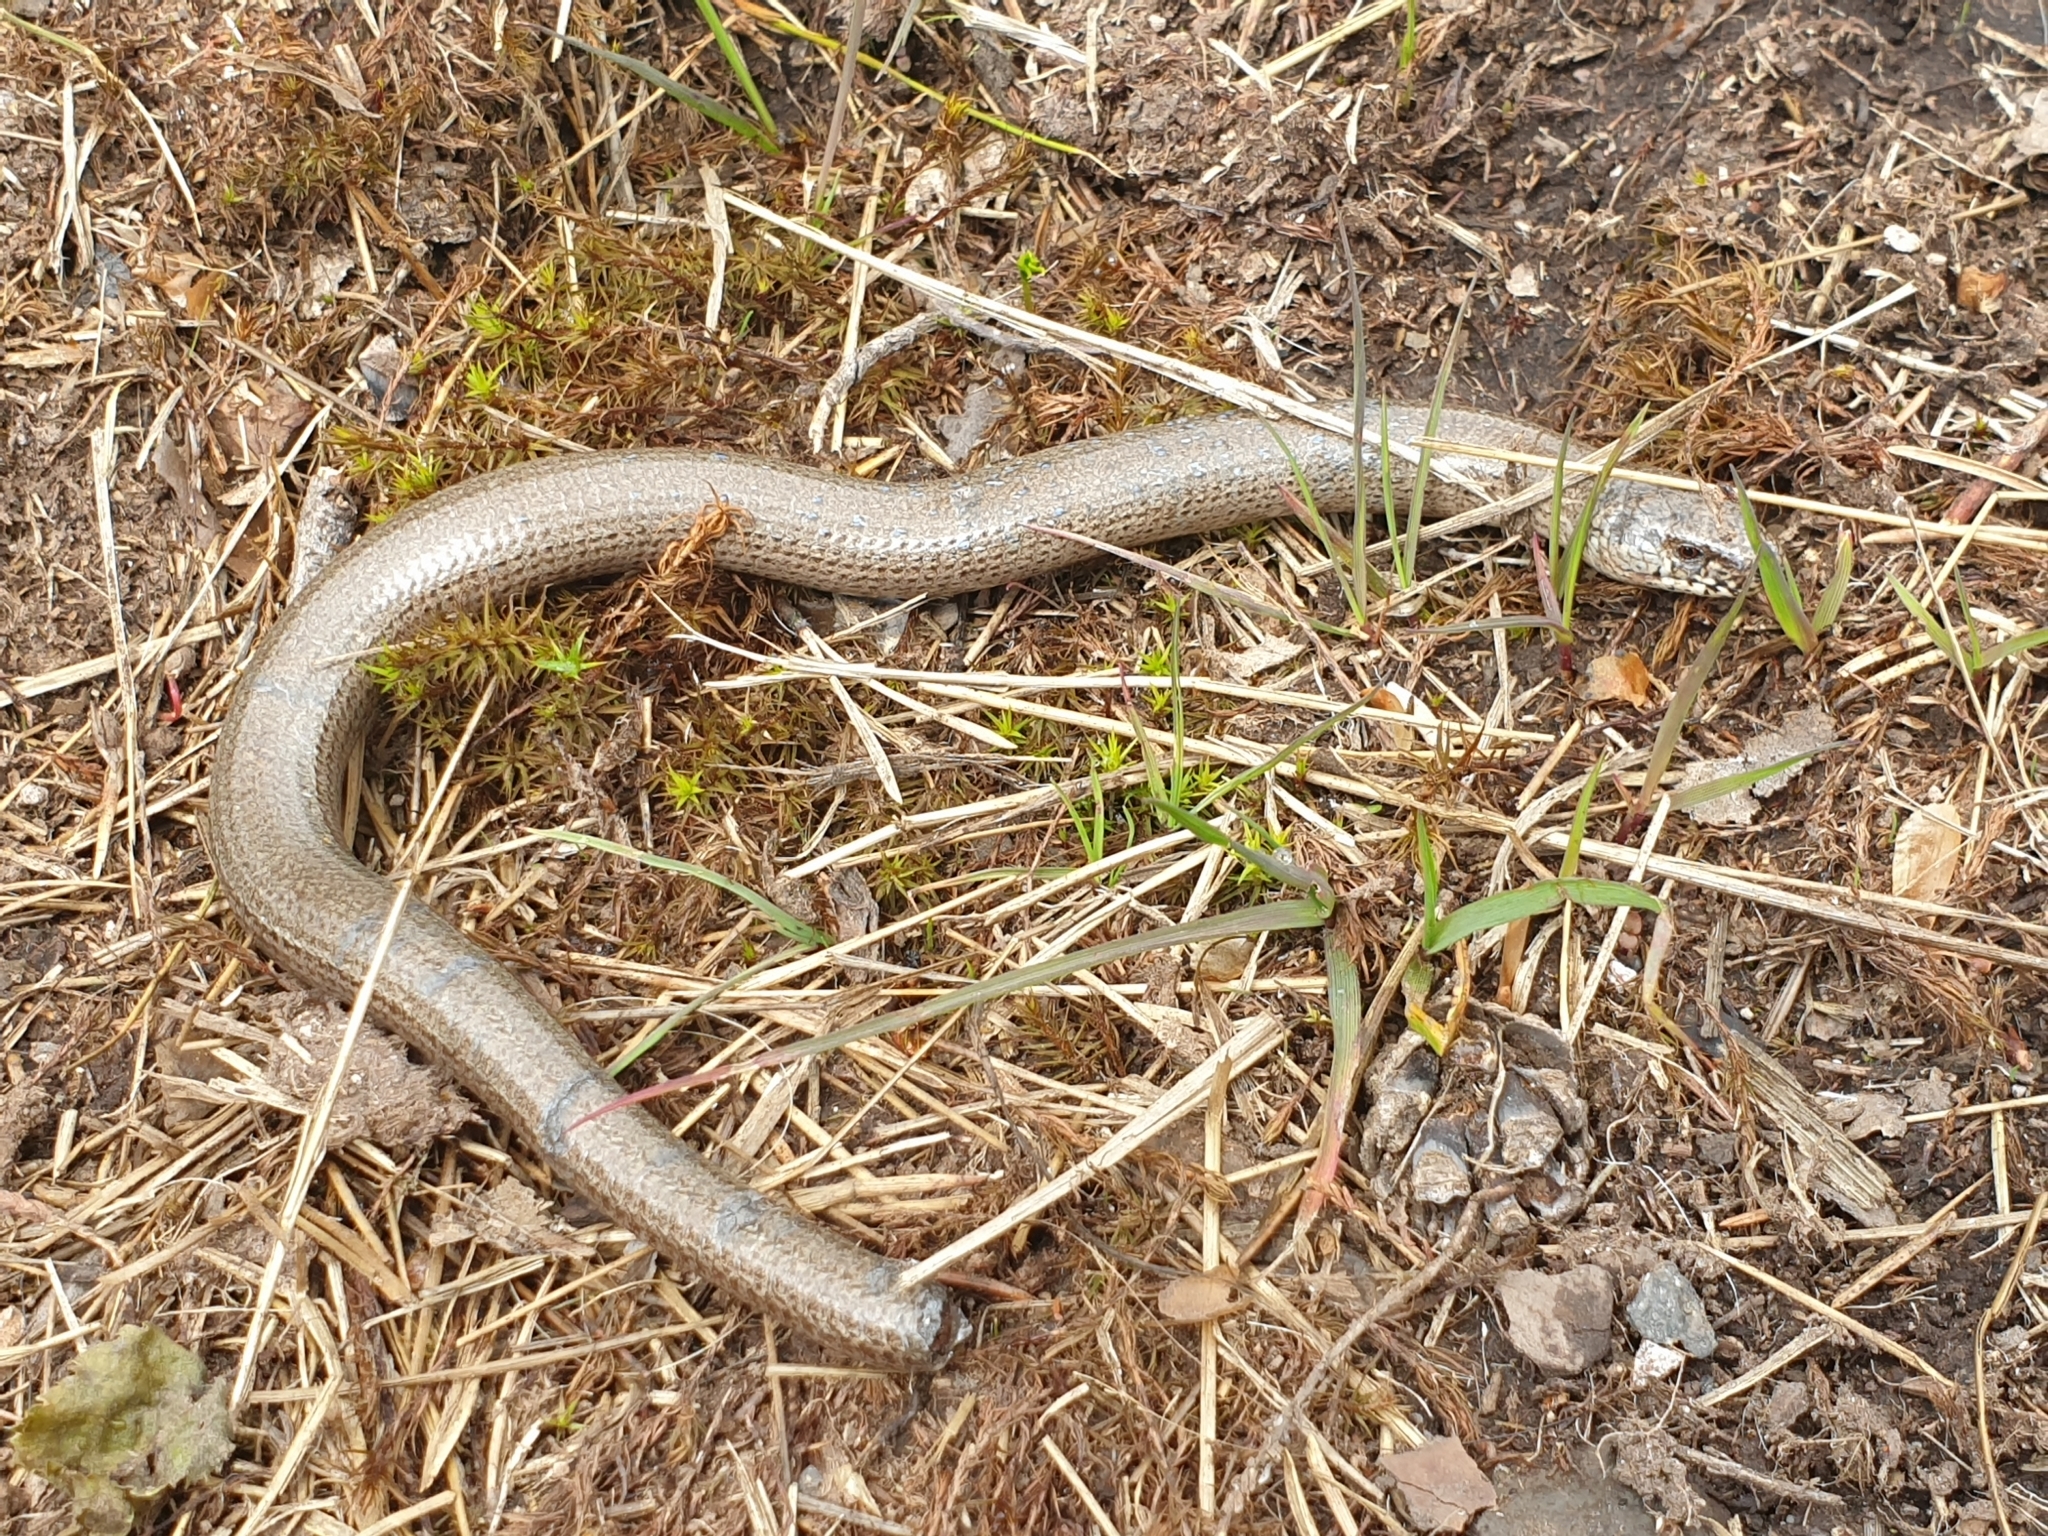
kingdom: Animalia
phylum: Chordata
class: Squamata
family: Anguidae
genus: Anguis
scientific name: Anguis fragilis
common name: Slow worm
